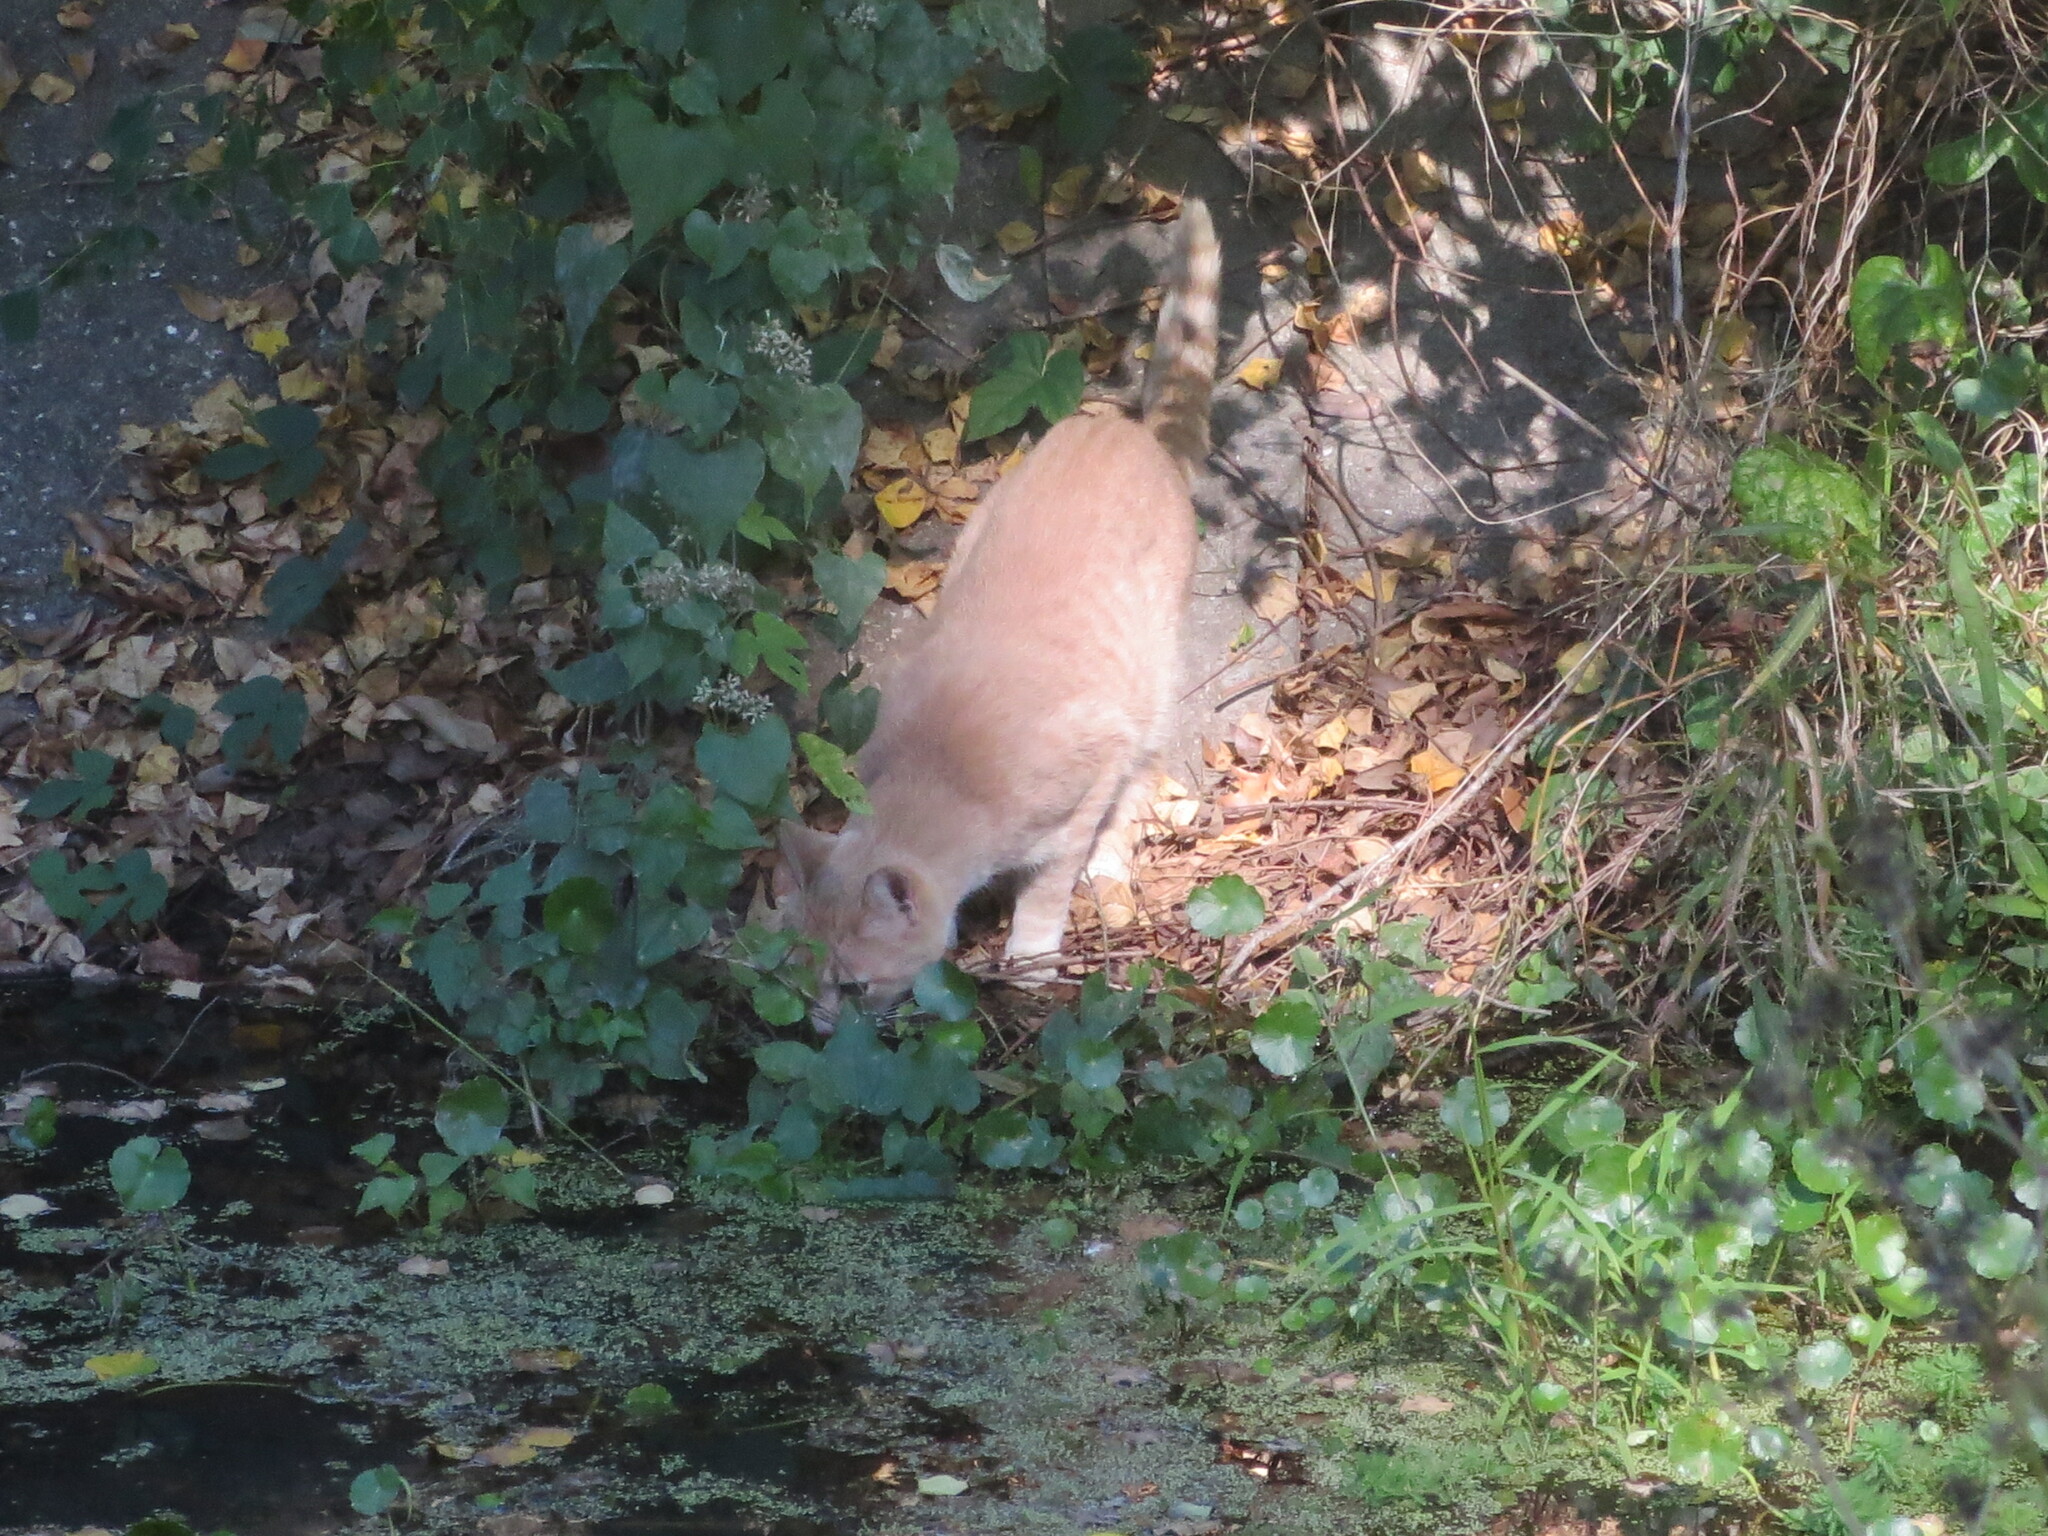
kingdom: Animalia
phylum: Chordata
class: Mammalia
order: Carnivora
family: Felidae
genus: Felis
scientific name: Felis catus
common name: Domestic cat
